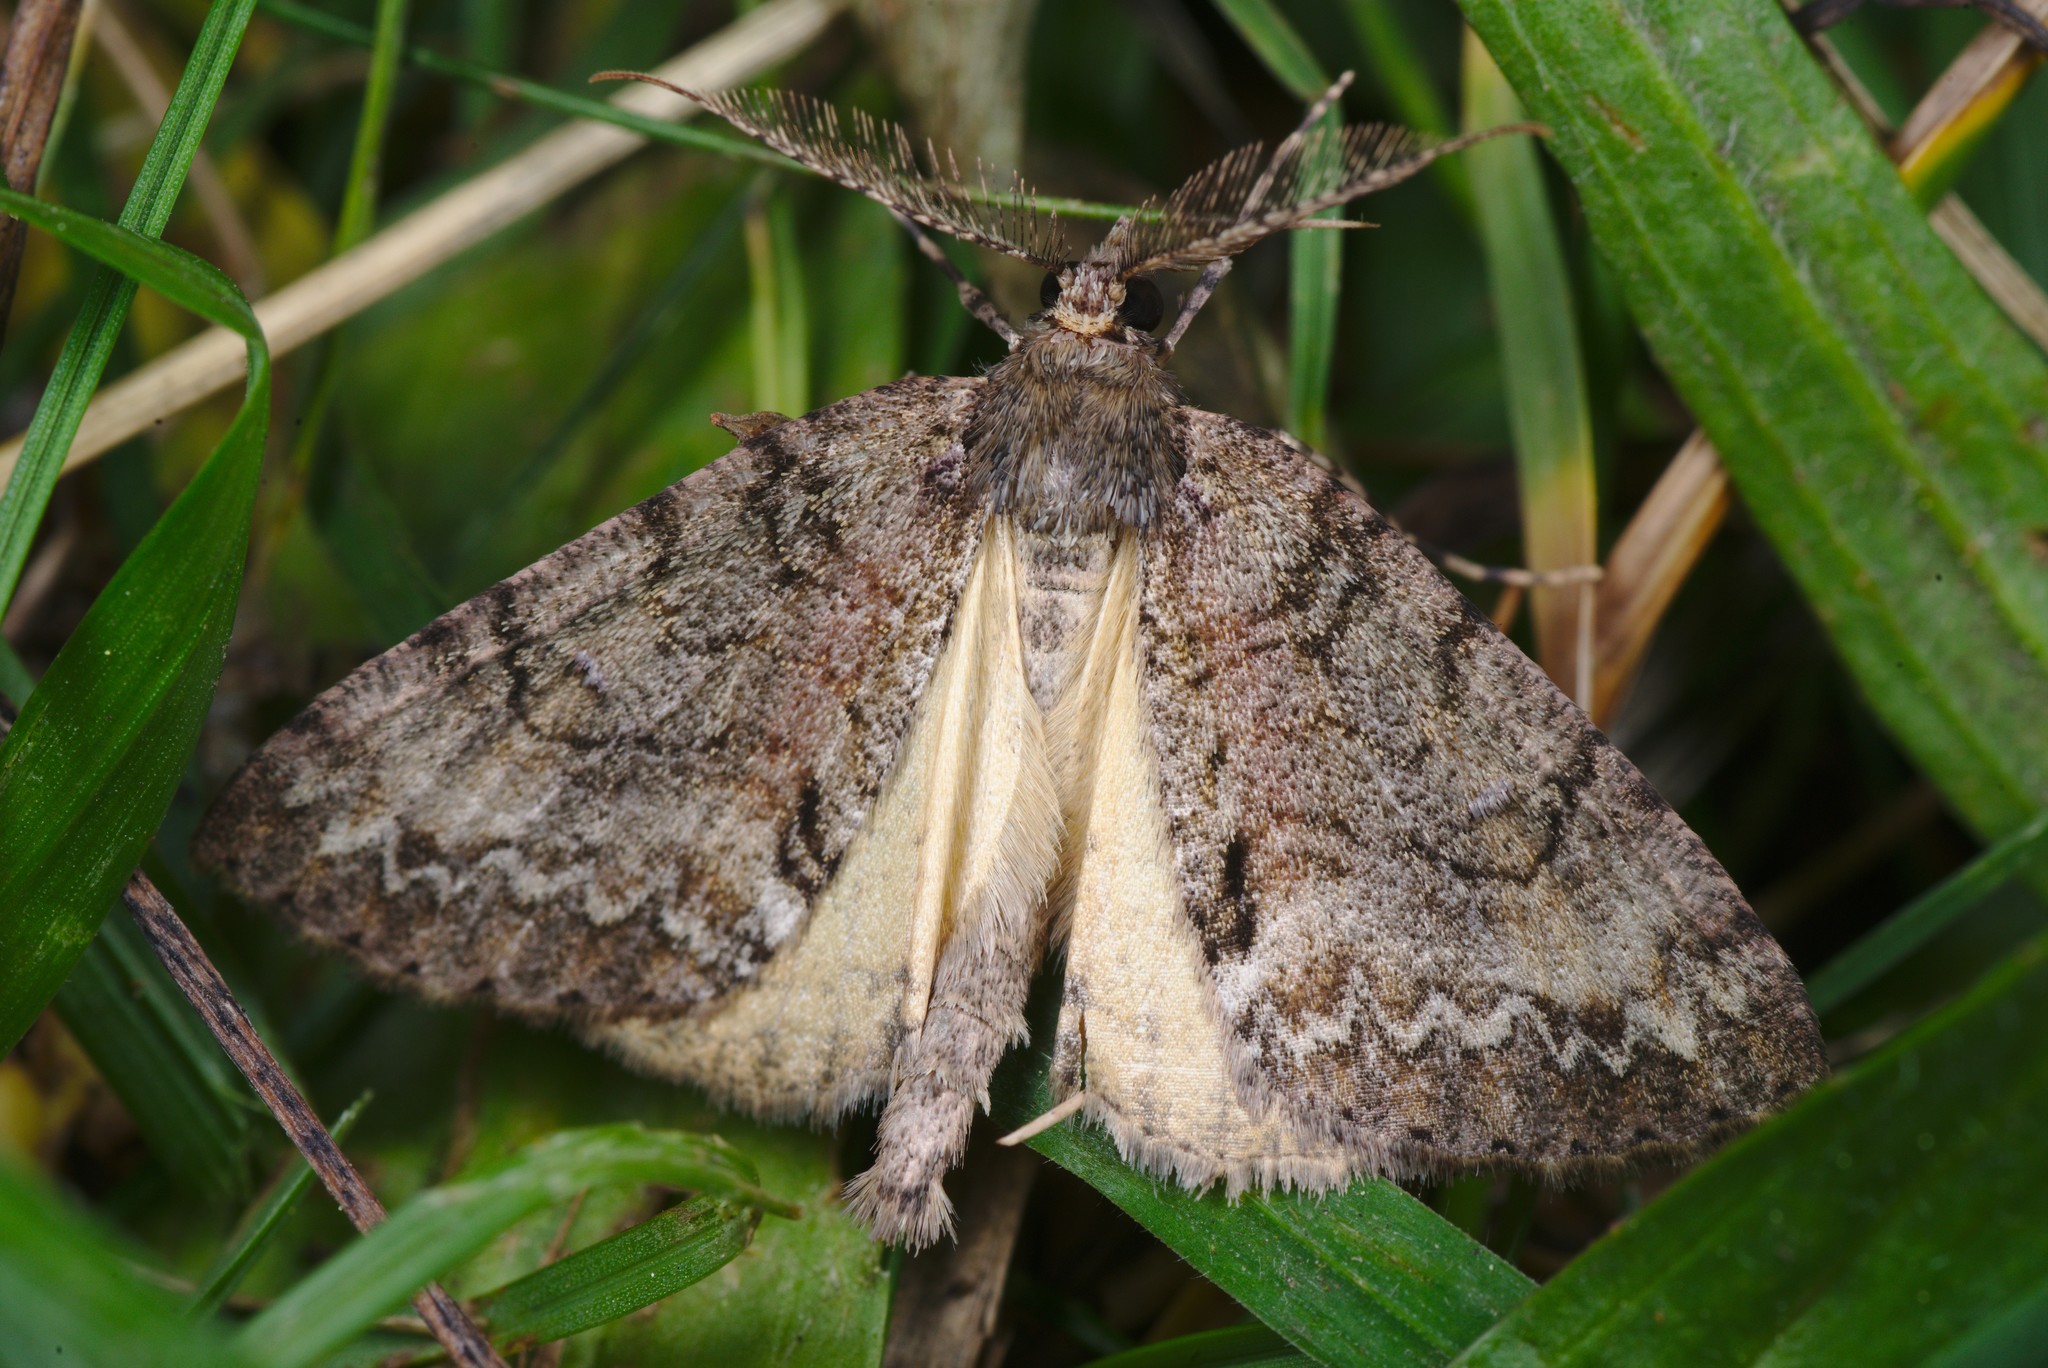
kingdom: Animalia
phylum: Arthropoda
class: Insecta
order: Lepidoptera
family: Geometridae
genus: Pseudocoremia
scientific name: Pseudocoremia suavis
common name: Common forest looper
